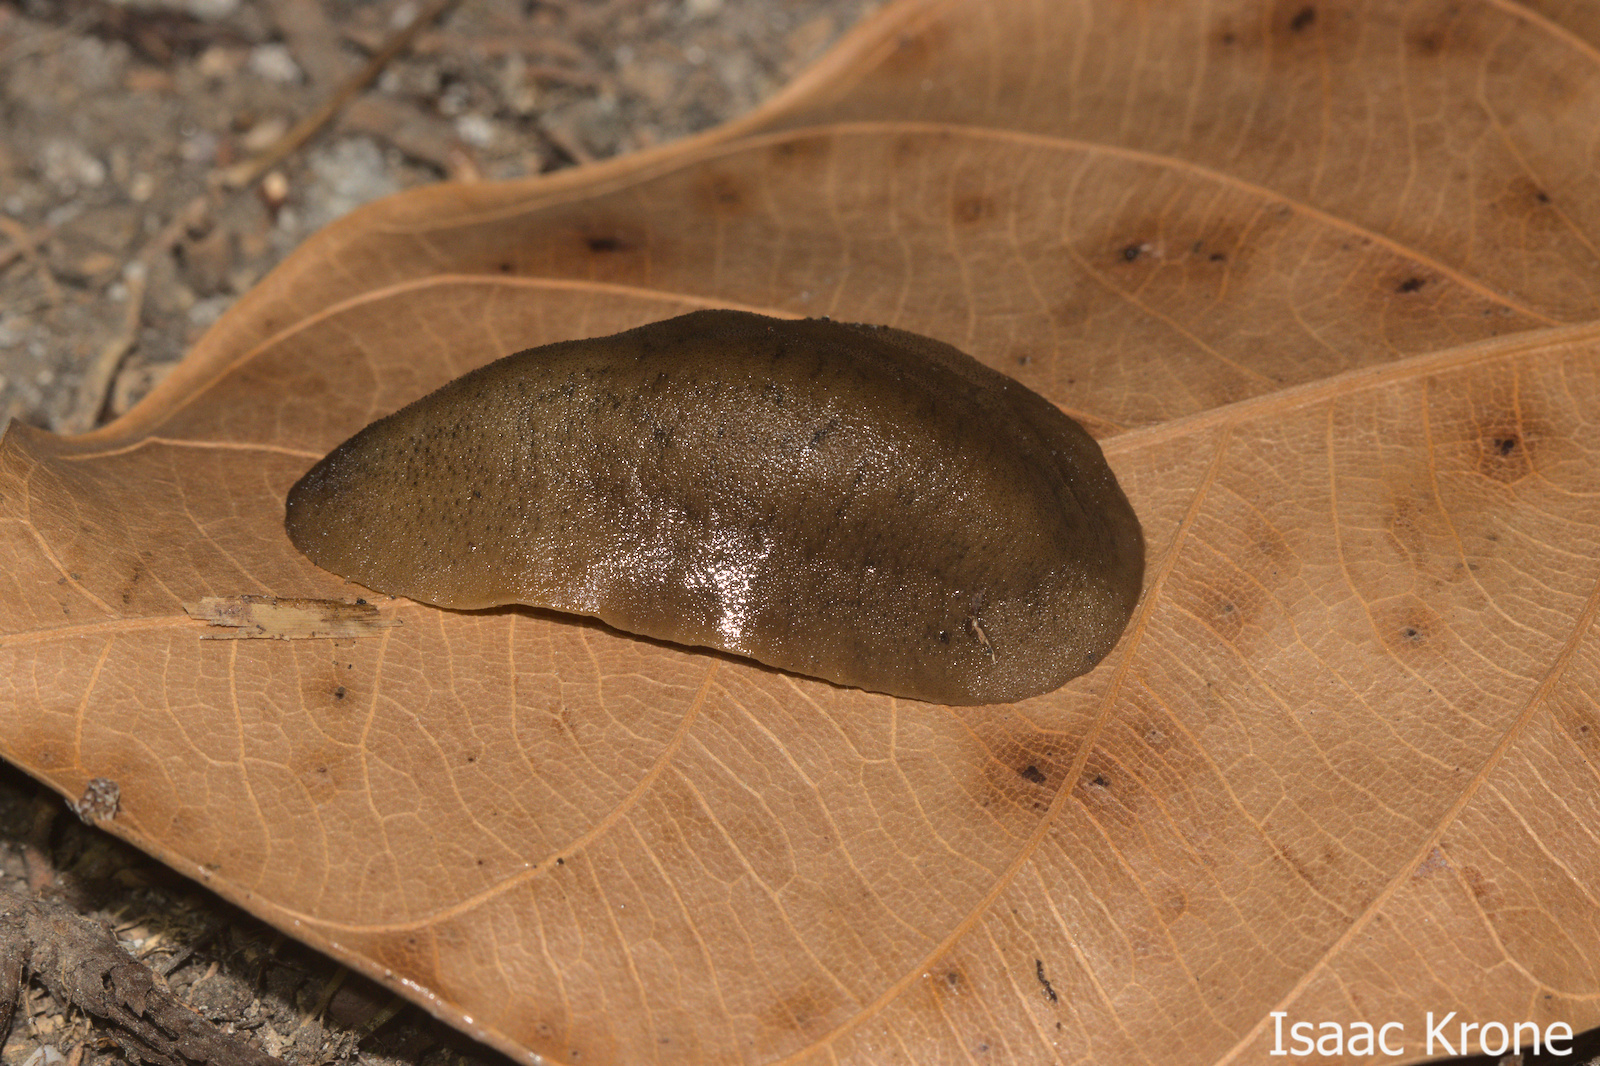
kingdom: Animalia
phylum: Mollusca
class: Gastropoda
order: Systellommatophora
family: Veronicellidae
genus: Sarasinula
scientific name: Sarasinula plebeia
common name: Caribbean leatherleaf
